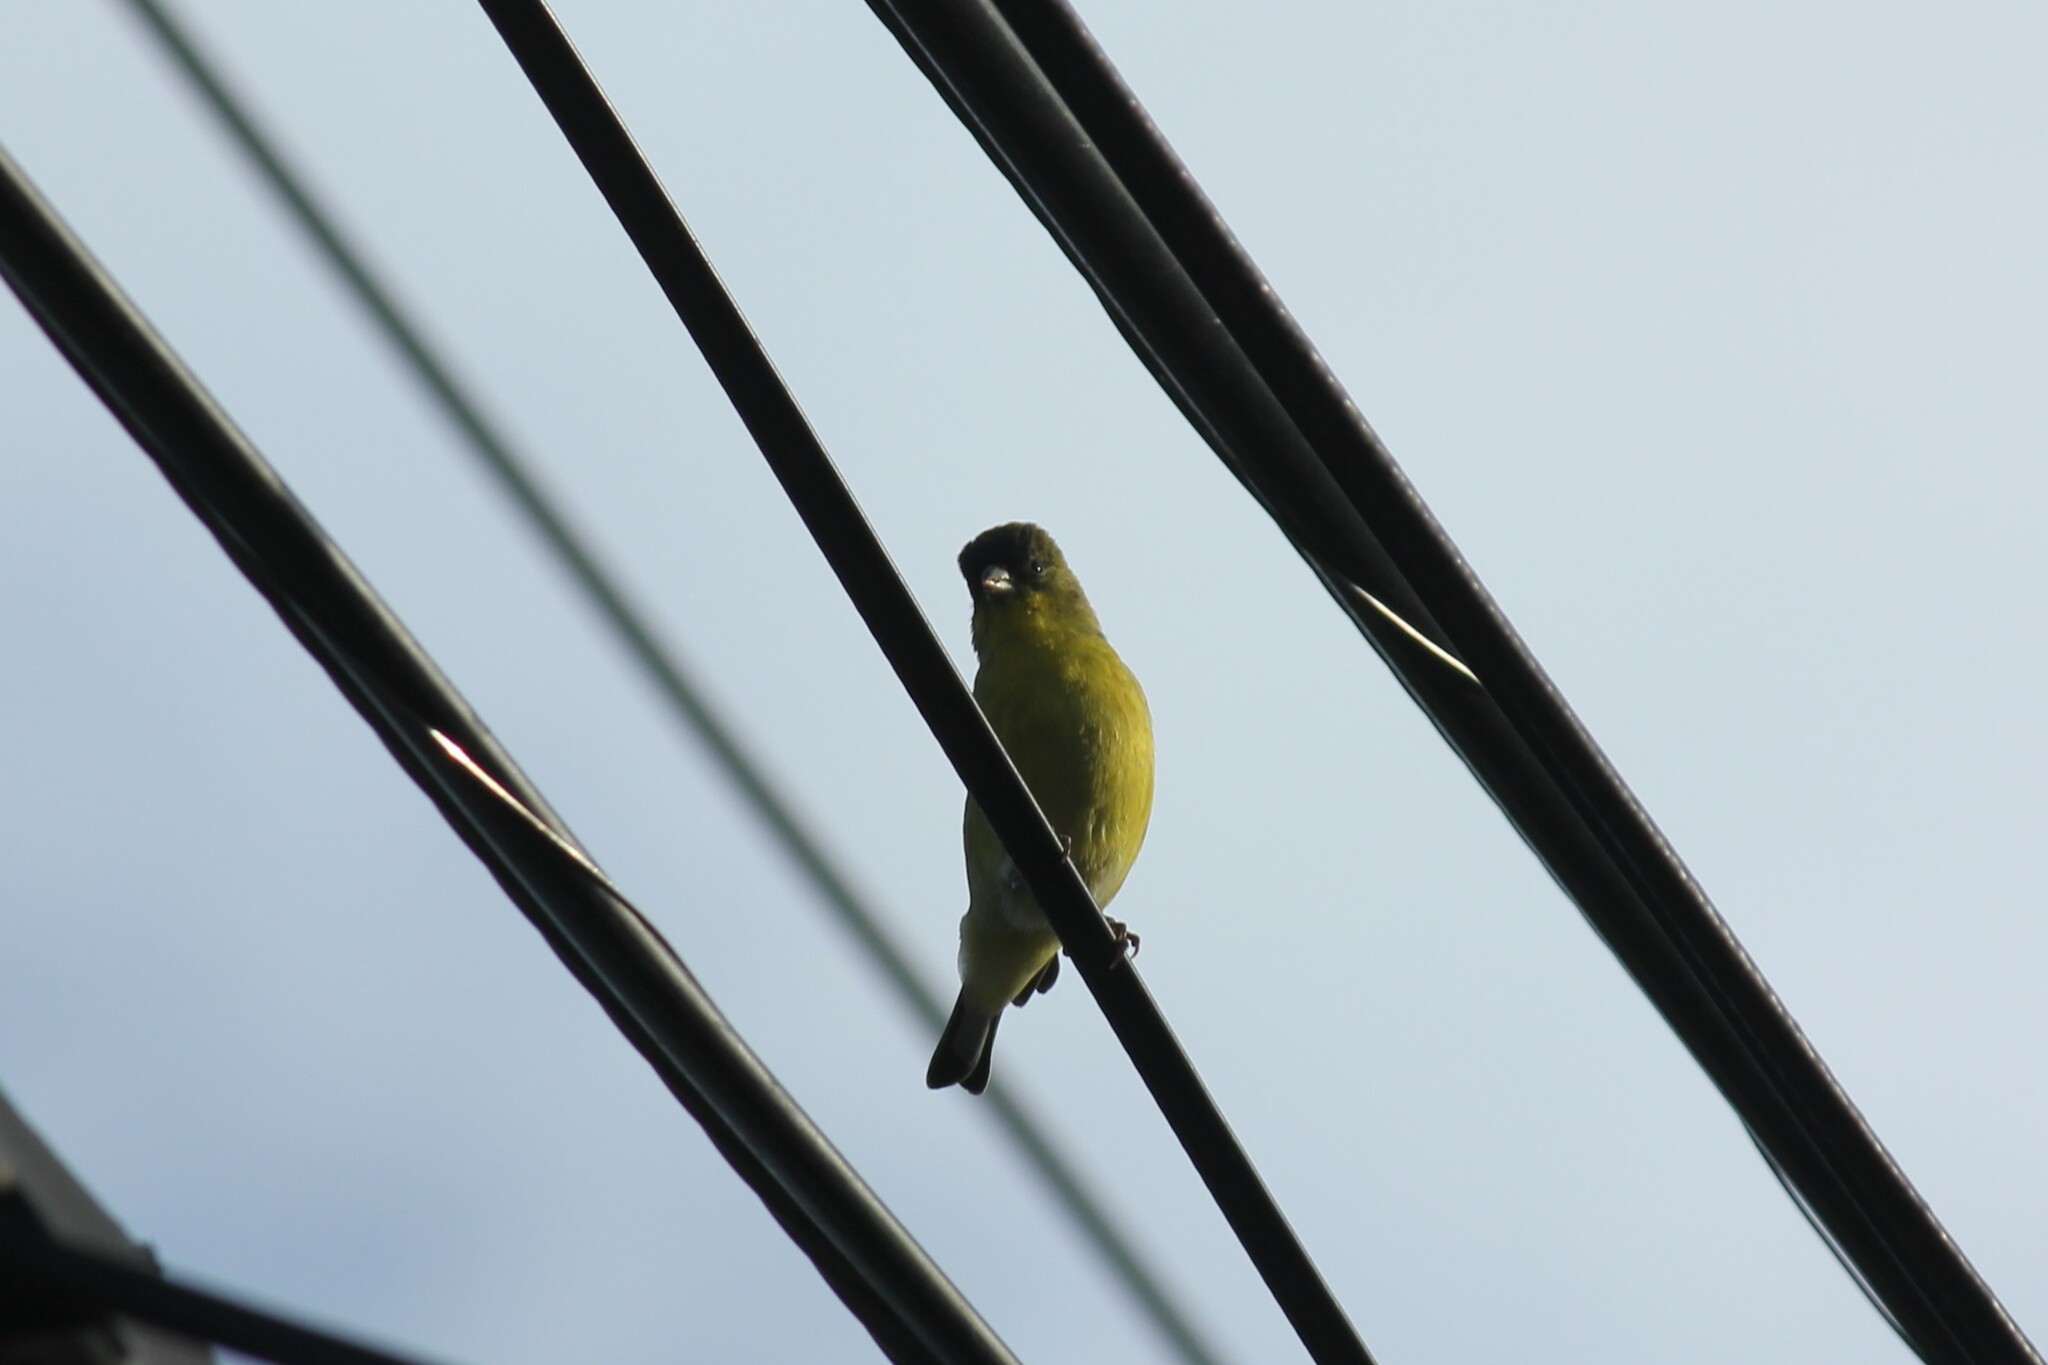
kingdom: Animalia
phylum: Chordata
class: Aves
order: Passeriformes
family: Fringillidae
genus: Spinus
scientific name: Spinus psaltria
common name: Lesser goldfinch
